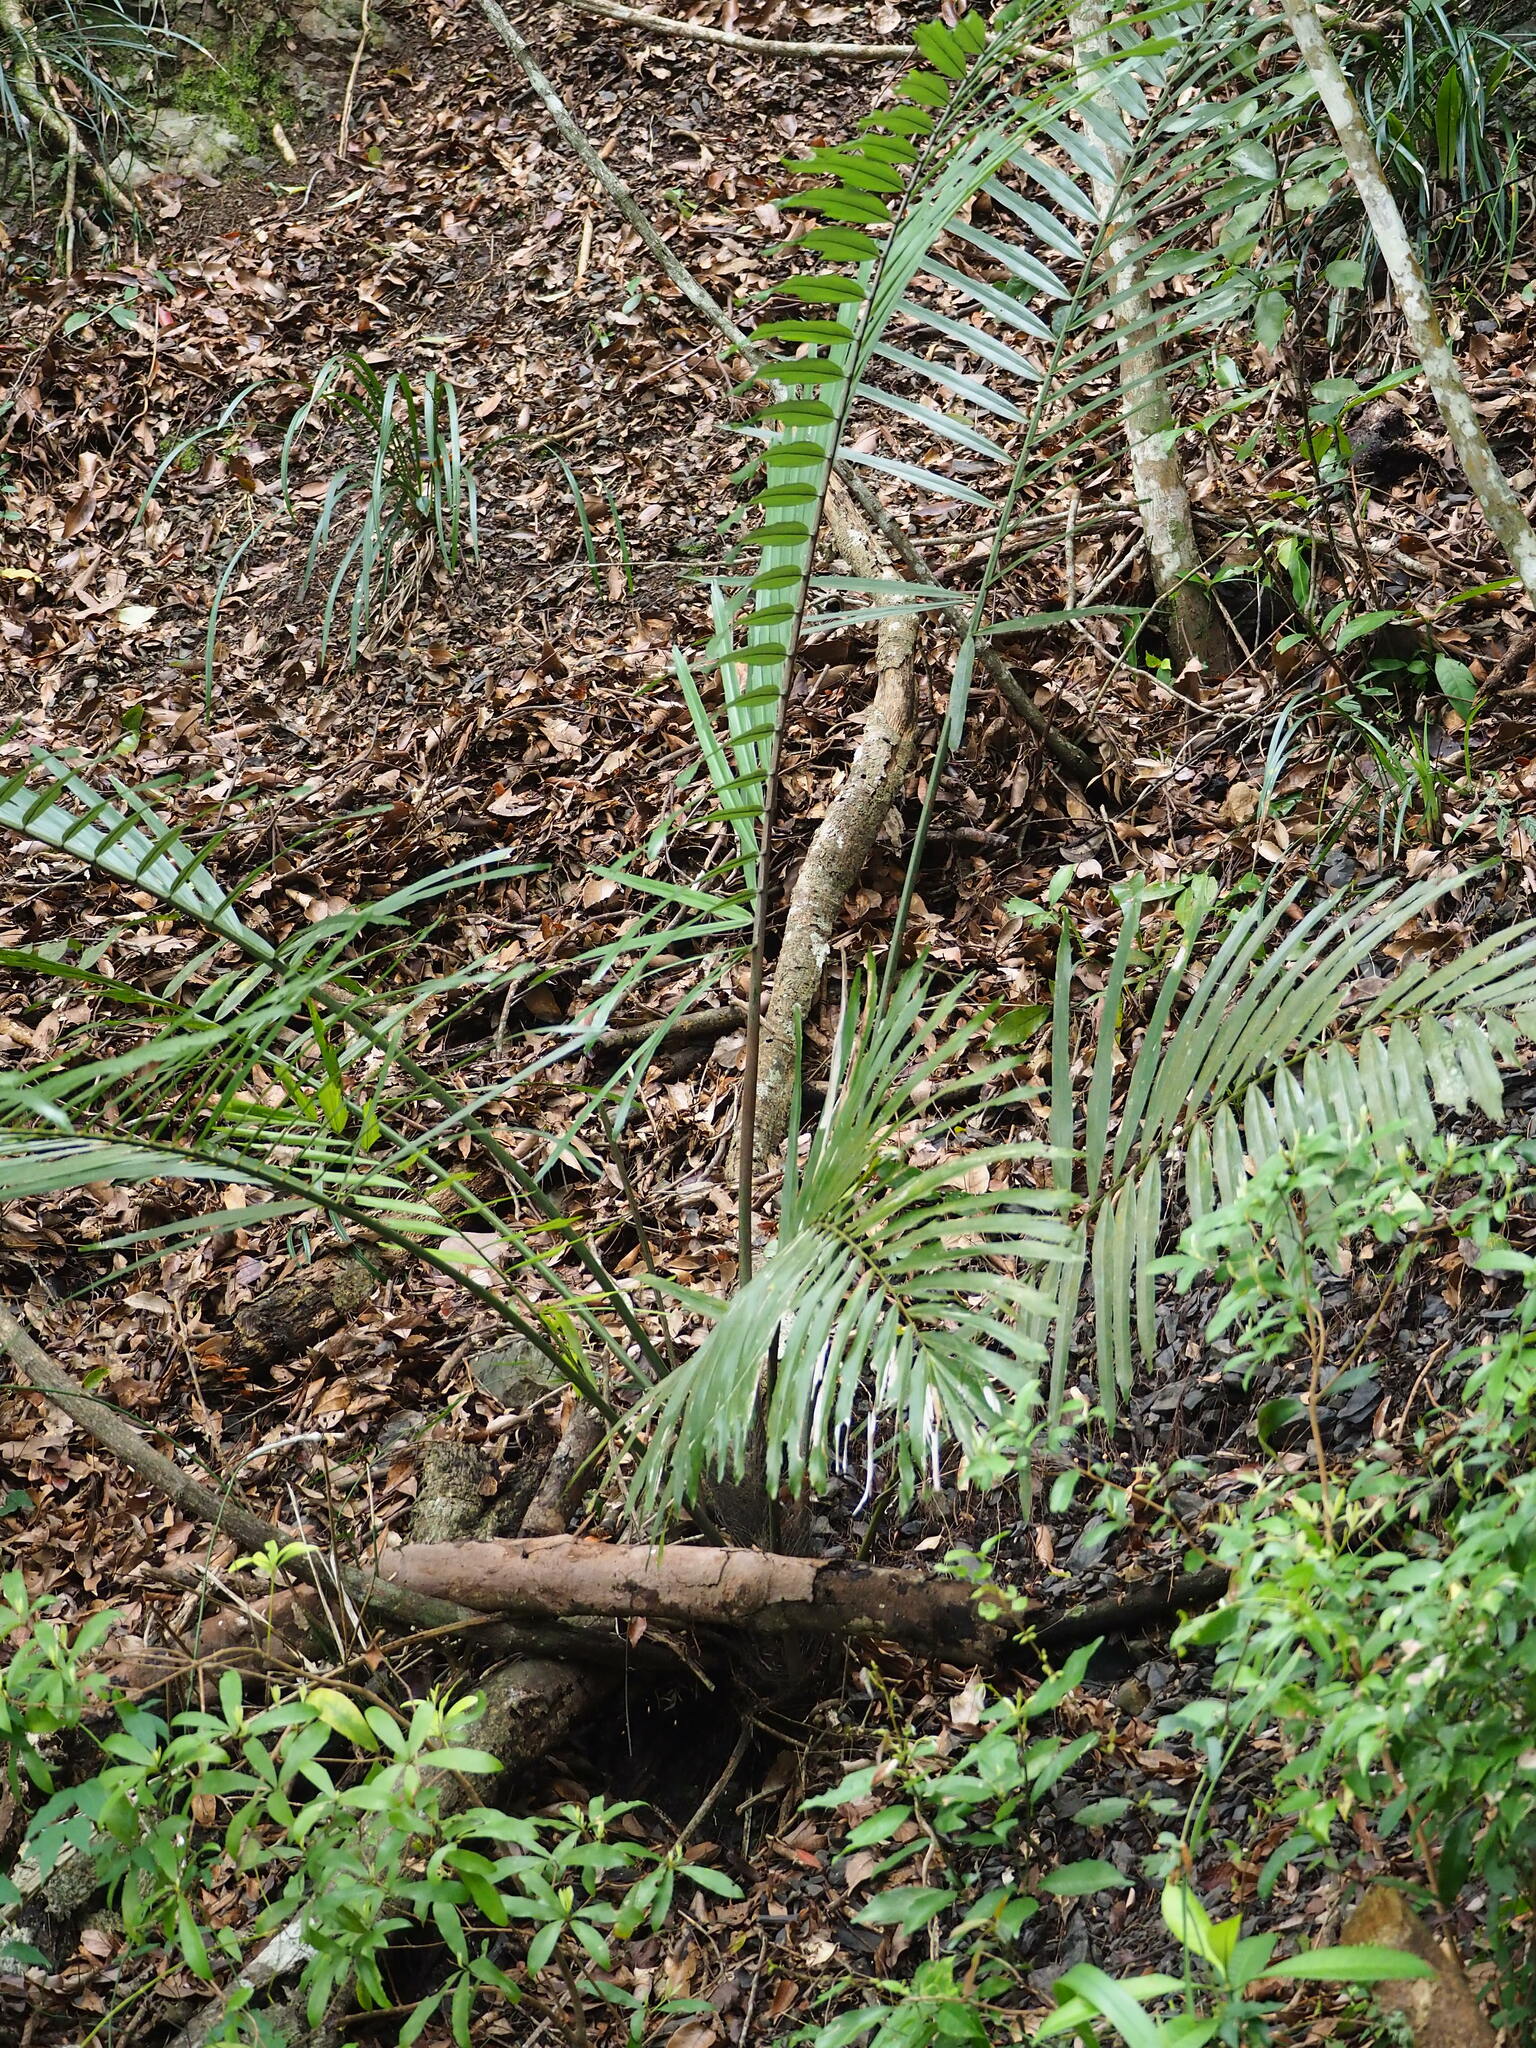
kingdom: Plantae
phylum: Tracheophyta
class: Liliopsida
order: Arecales
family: Arecaceae
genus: Arenga
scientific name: Arenga engleri
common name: Formosan sugar palm
